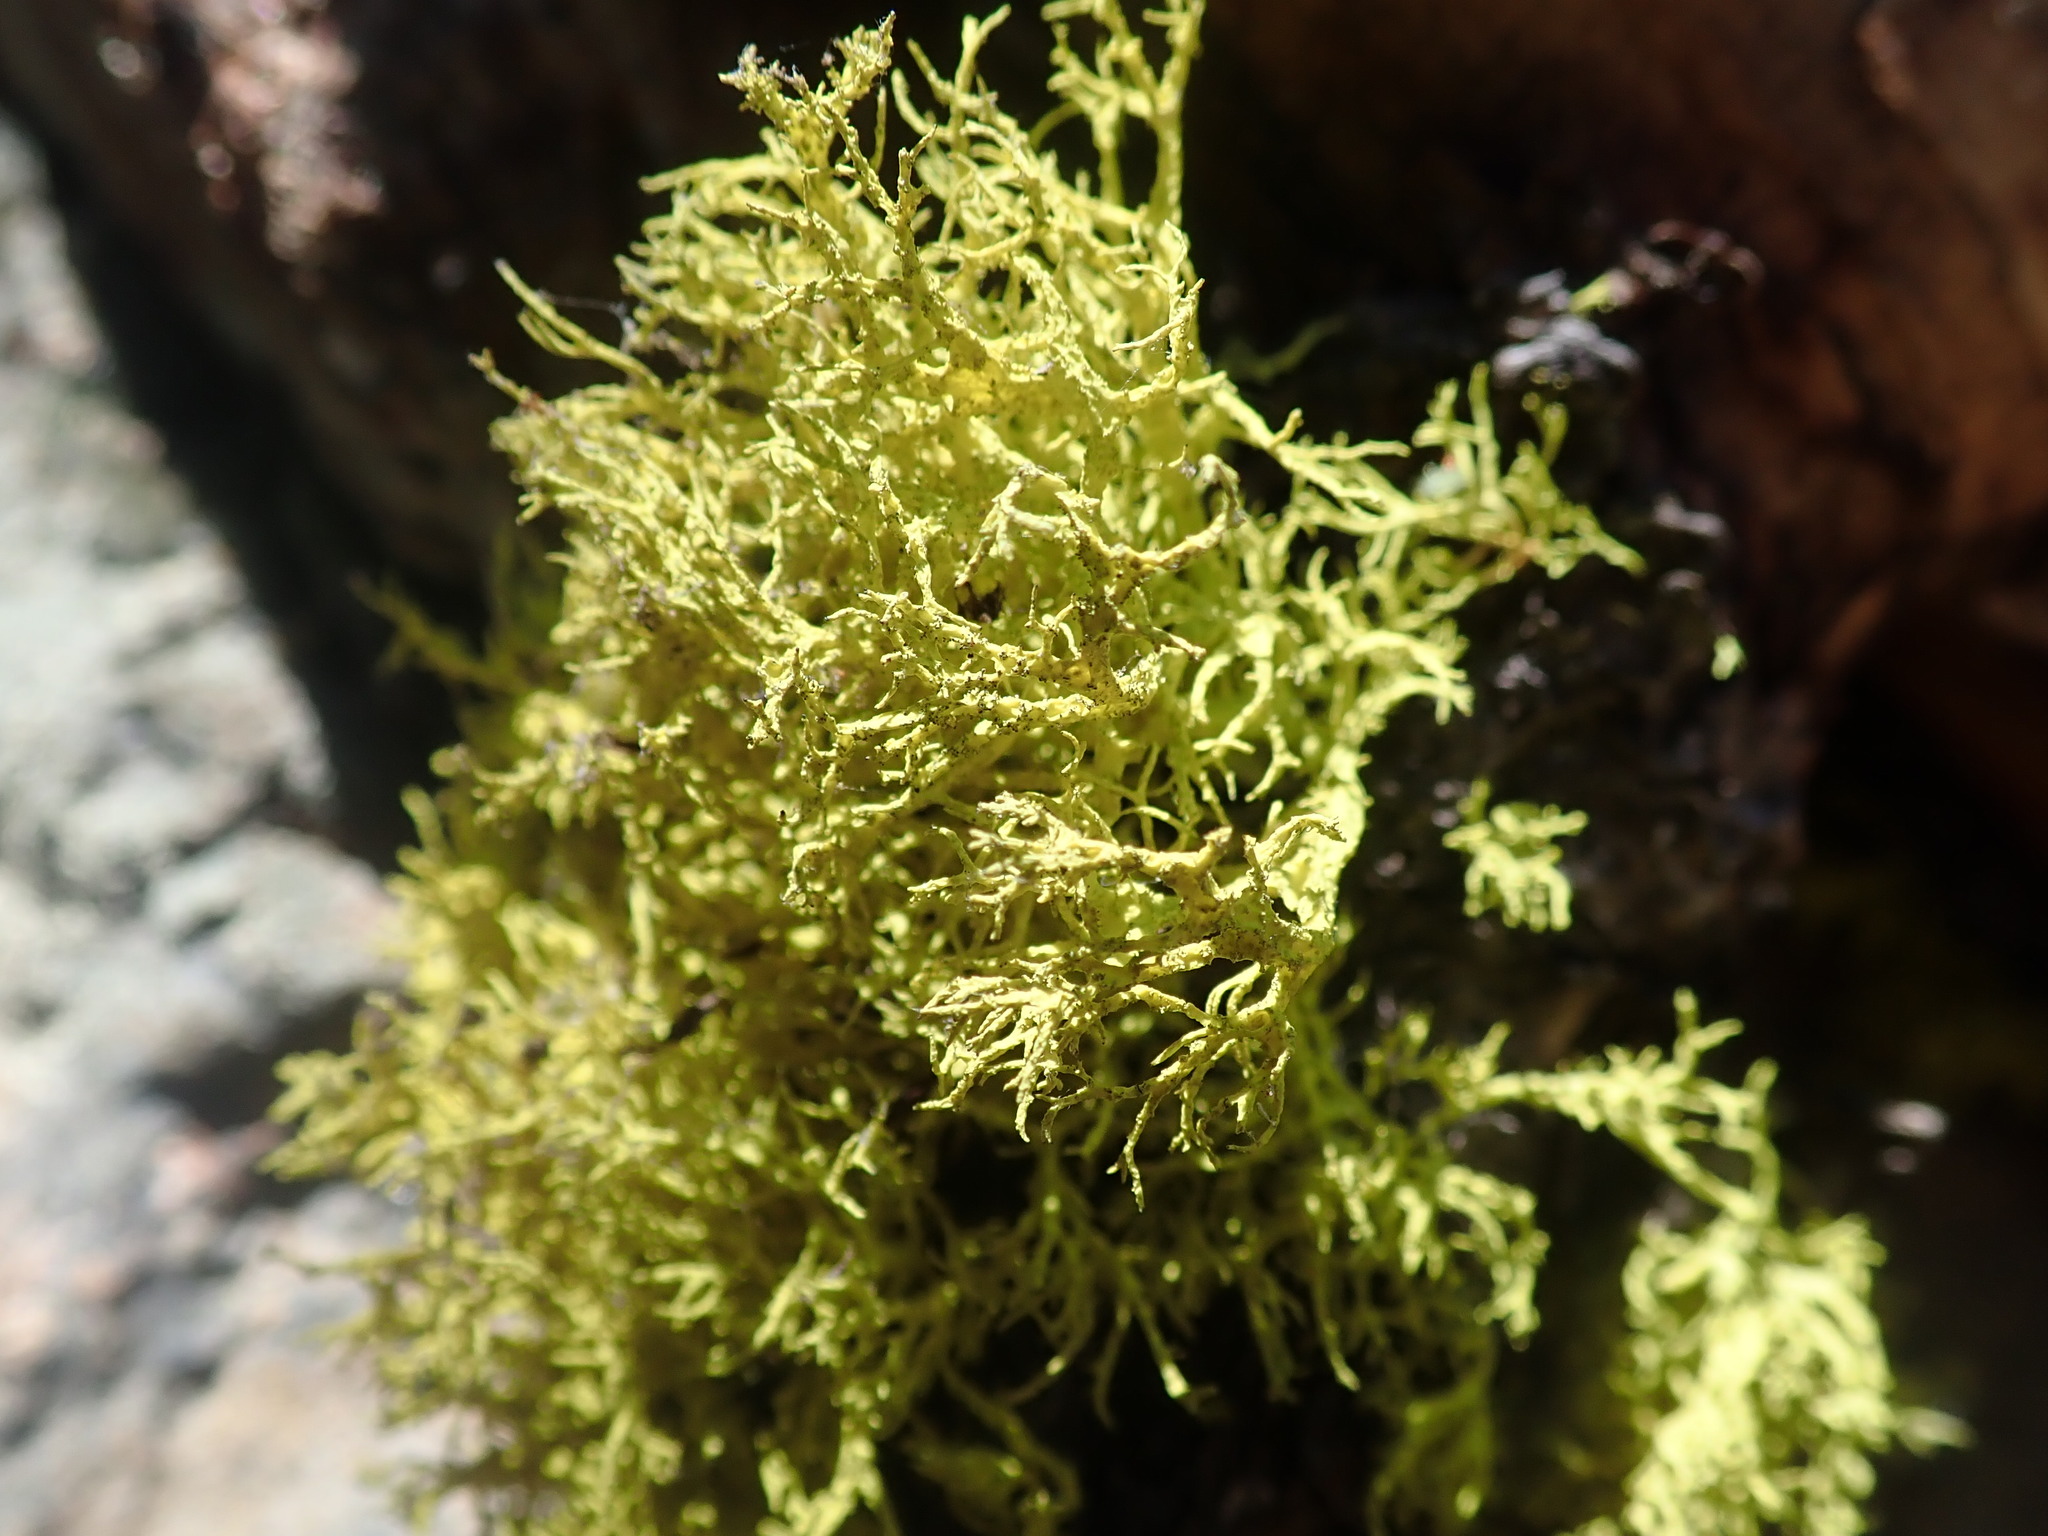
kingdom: Fungi
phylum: Ascomycota
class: Lecanoromycetes
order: Lecanorales
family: Parmeliaceae
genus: Letharia
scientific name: Letharia columbiana
